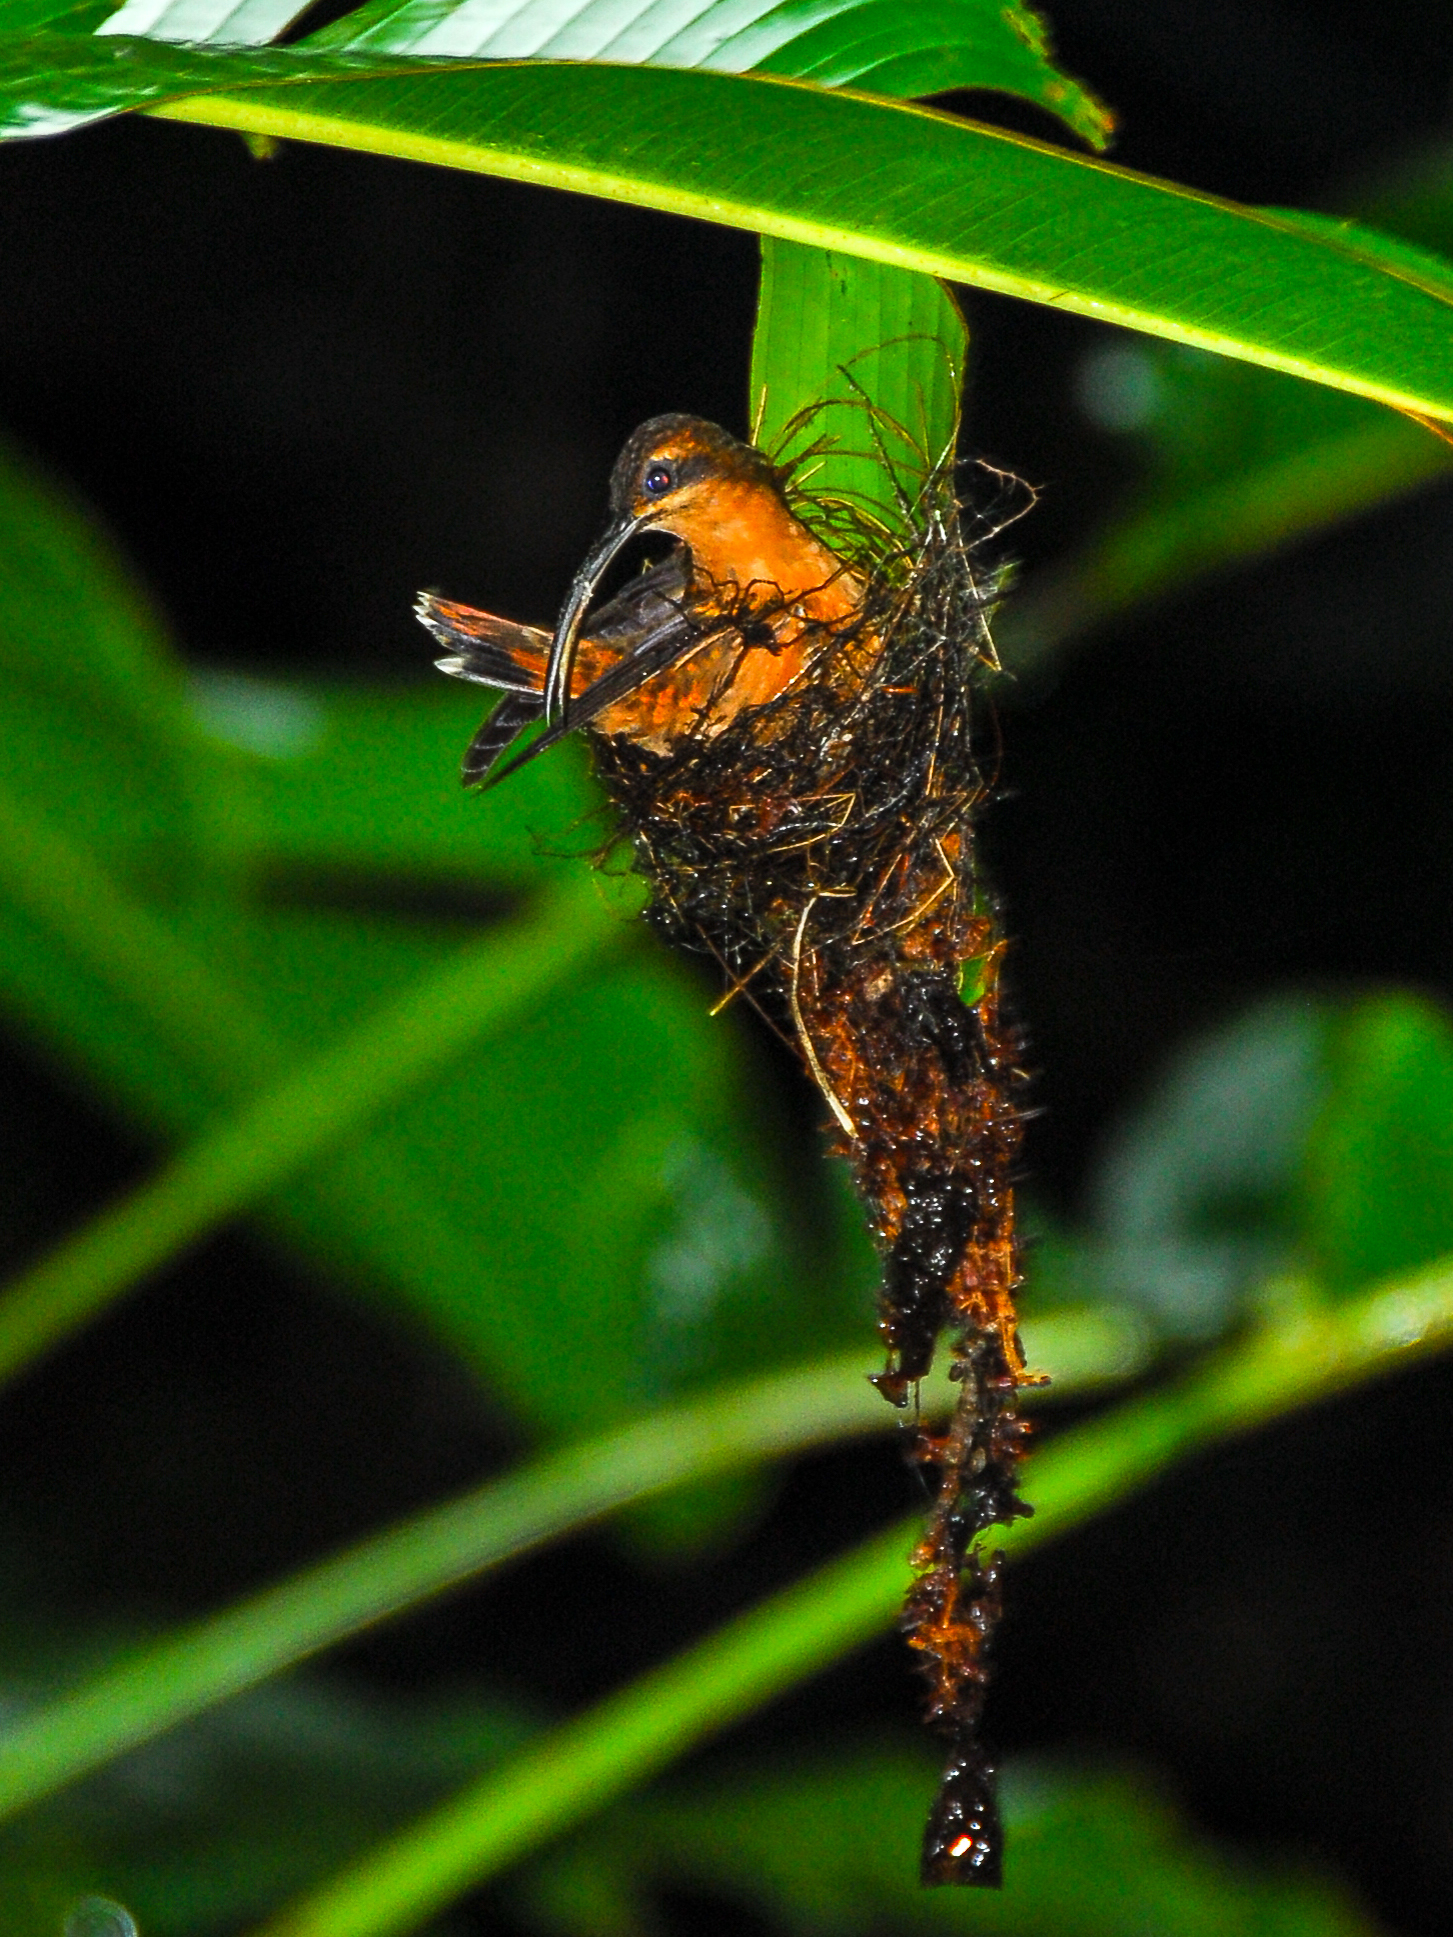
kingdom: Animalia
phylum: Chordata
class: Aves
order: Apodiformes
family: Trochilidae
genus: Phaethornis
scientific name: Phaethornis longirostris
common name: Long-billed hermit
